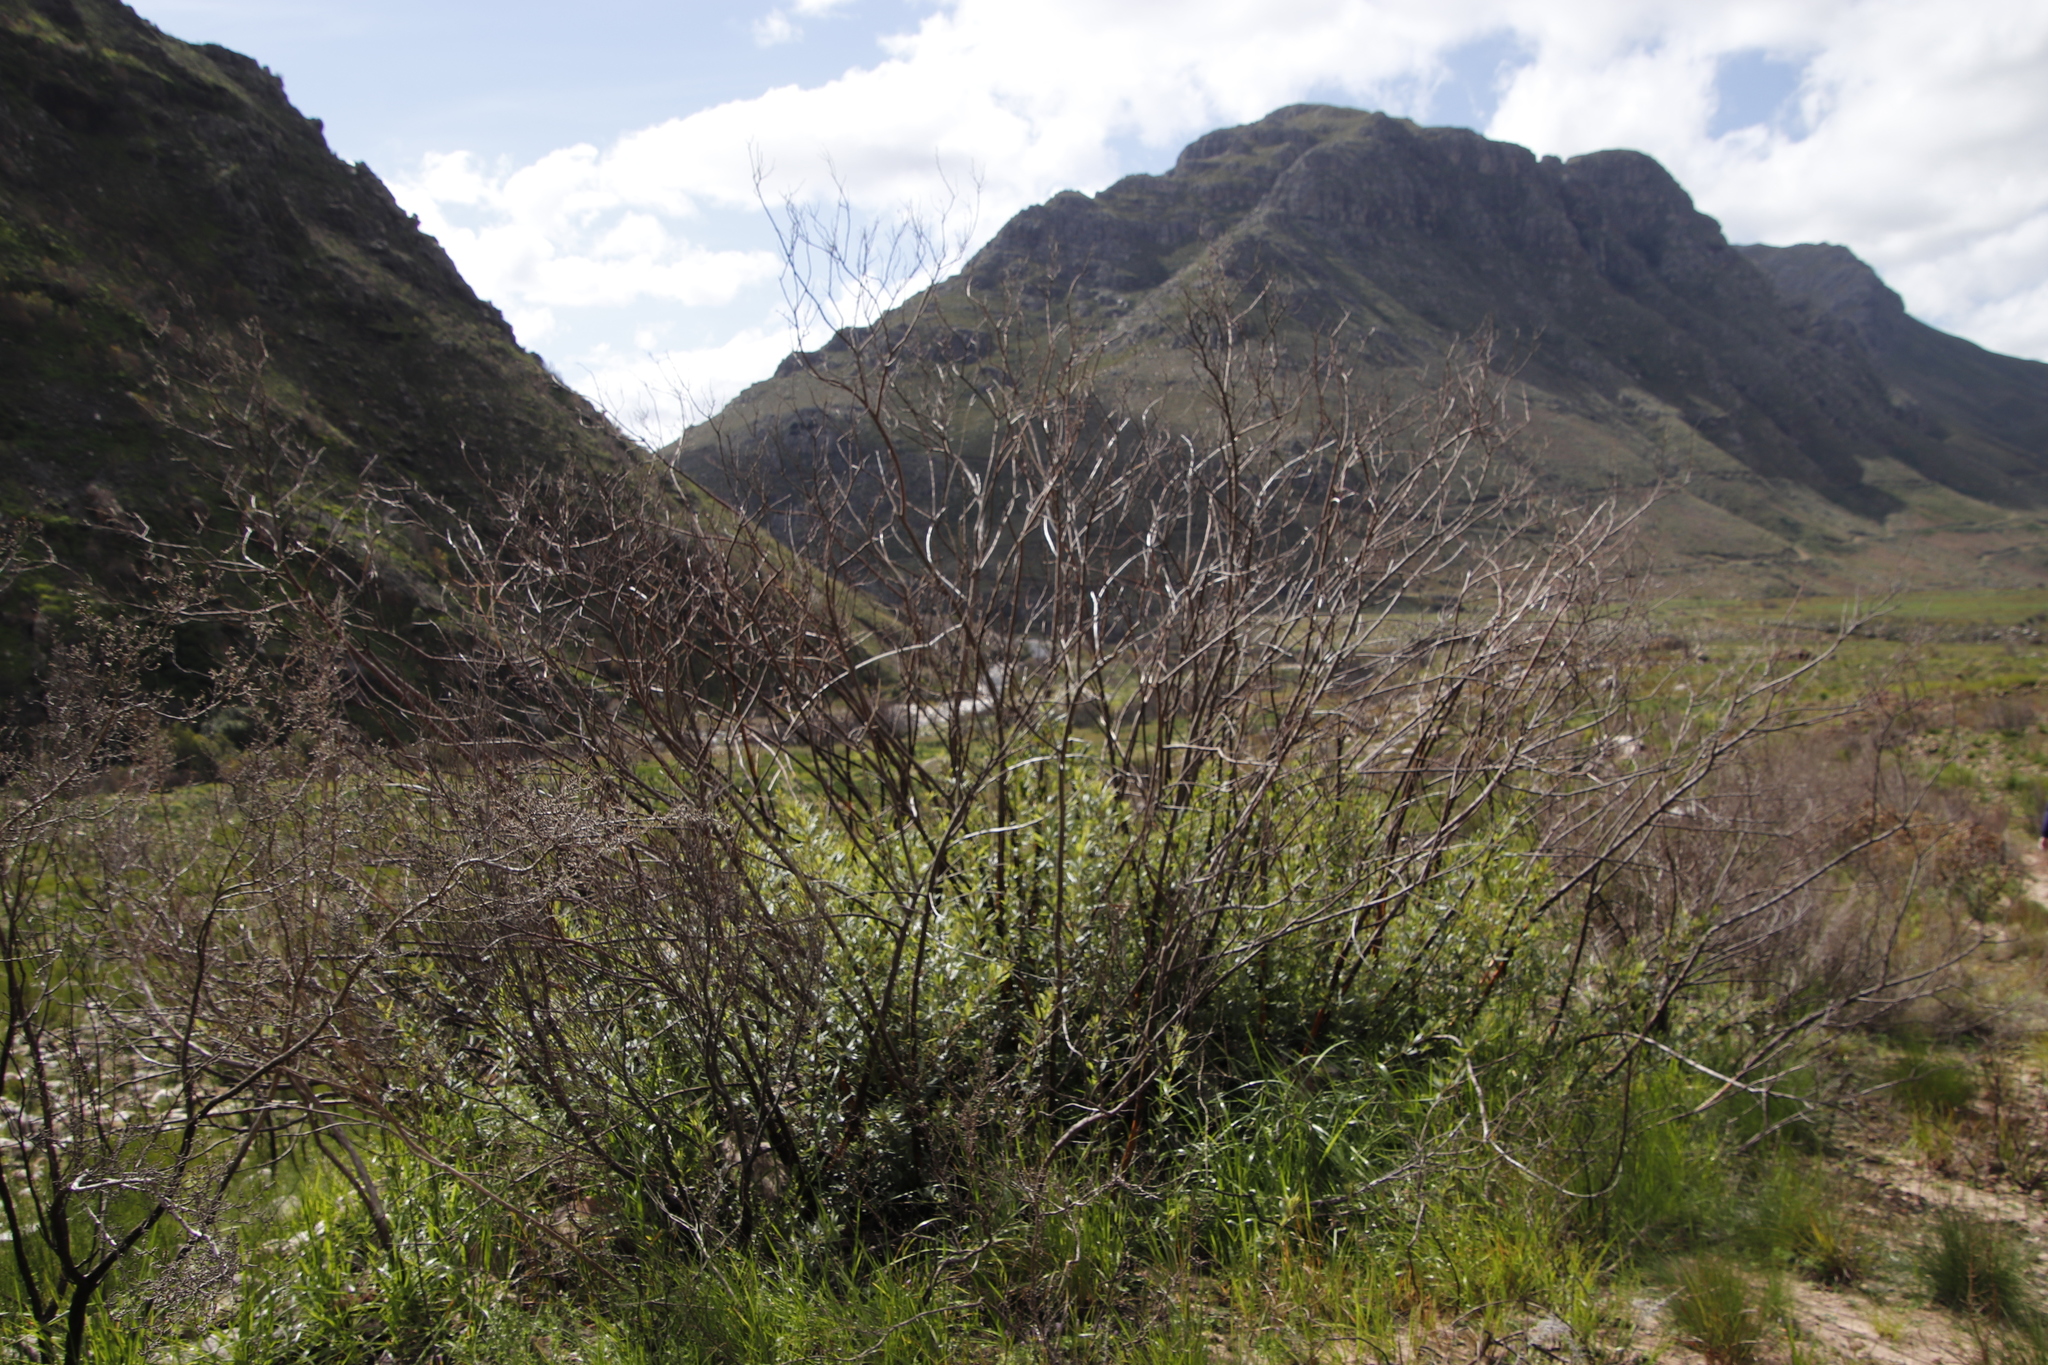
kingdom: Plantae
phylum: Tracheophyta
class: Magnoliopsida
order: Sapindales
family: Anacardiaceae
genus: Searsia
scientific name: Searsia angustifolia
